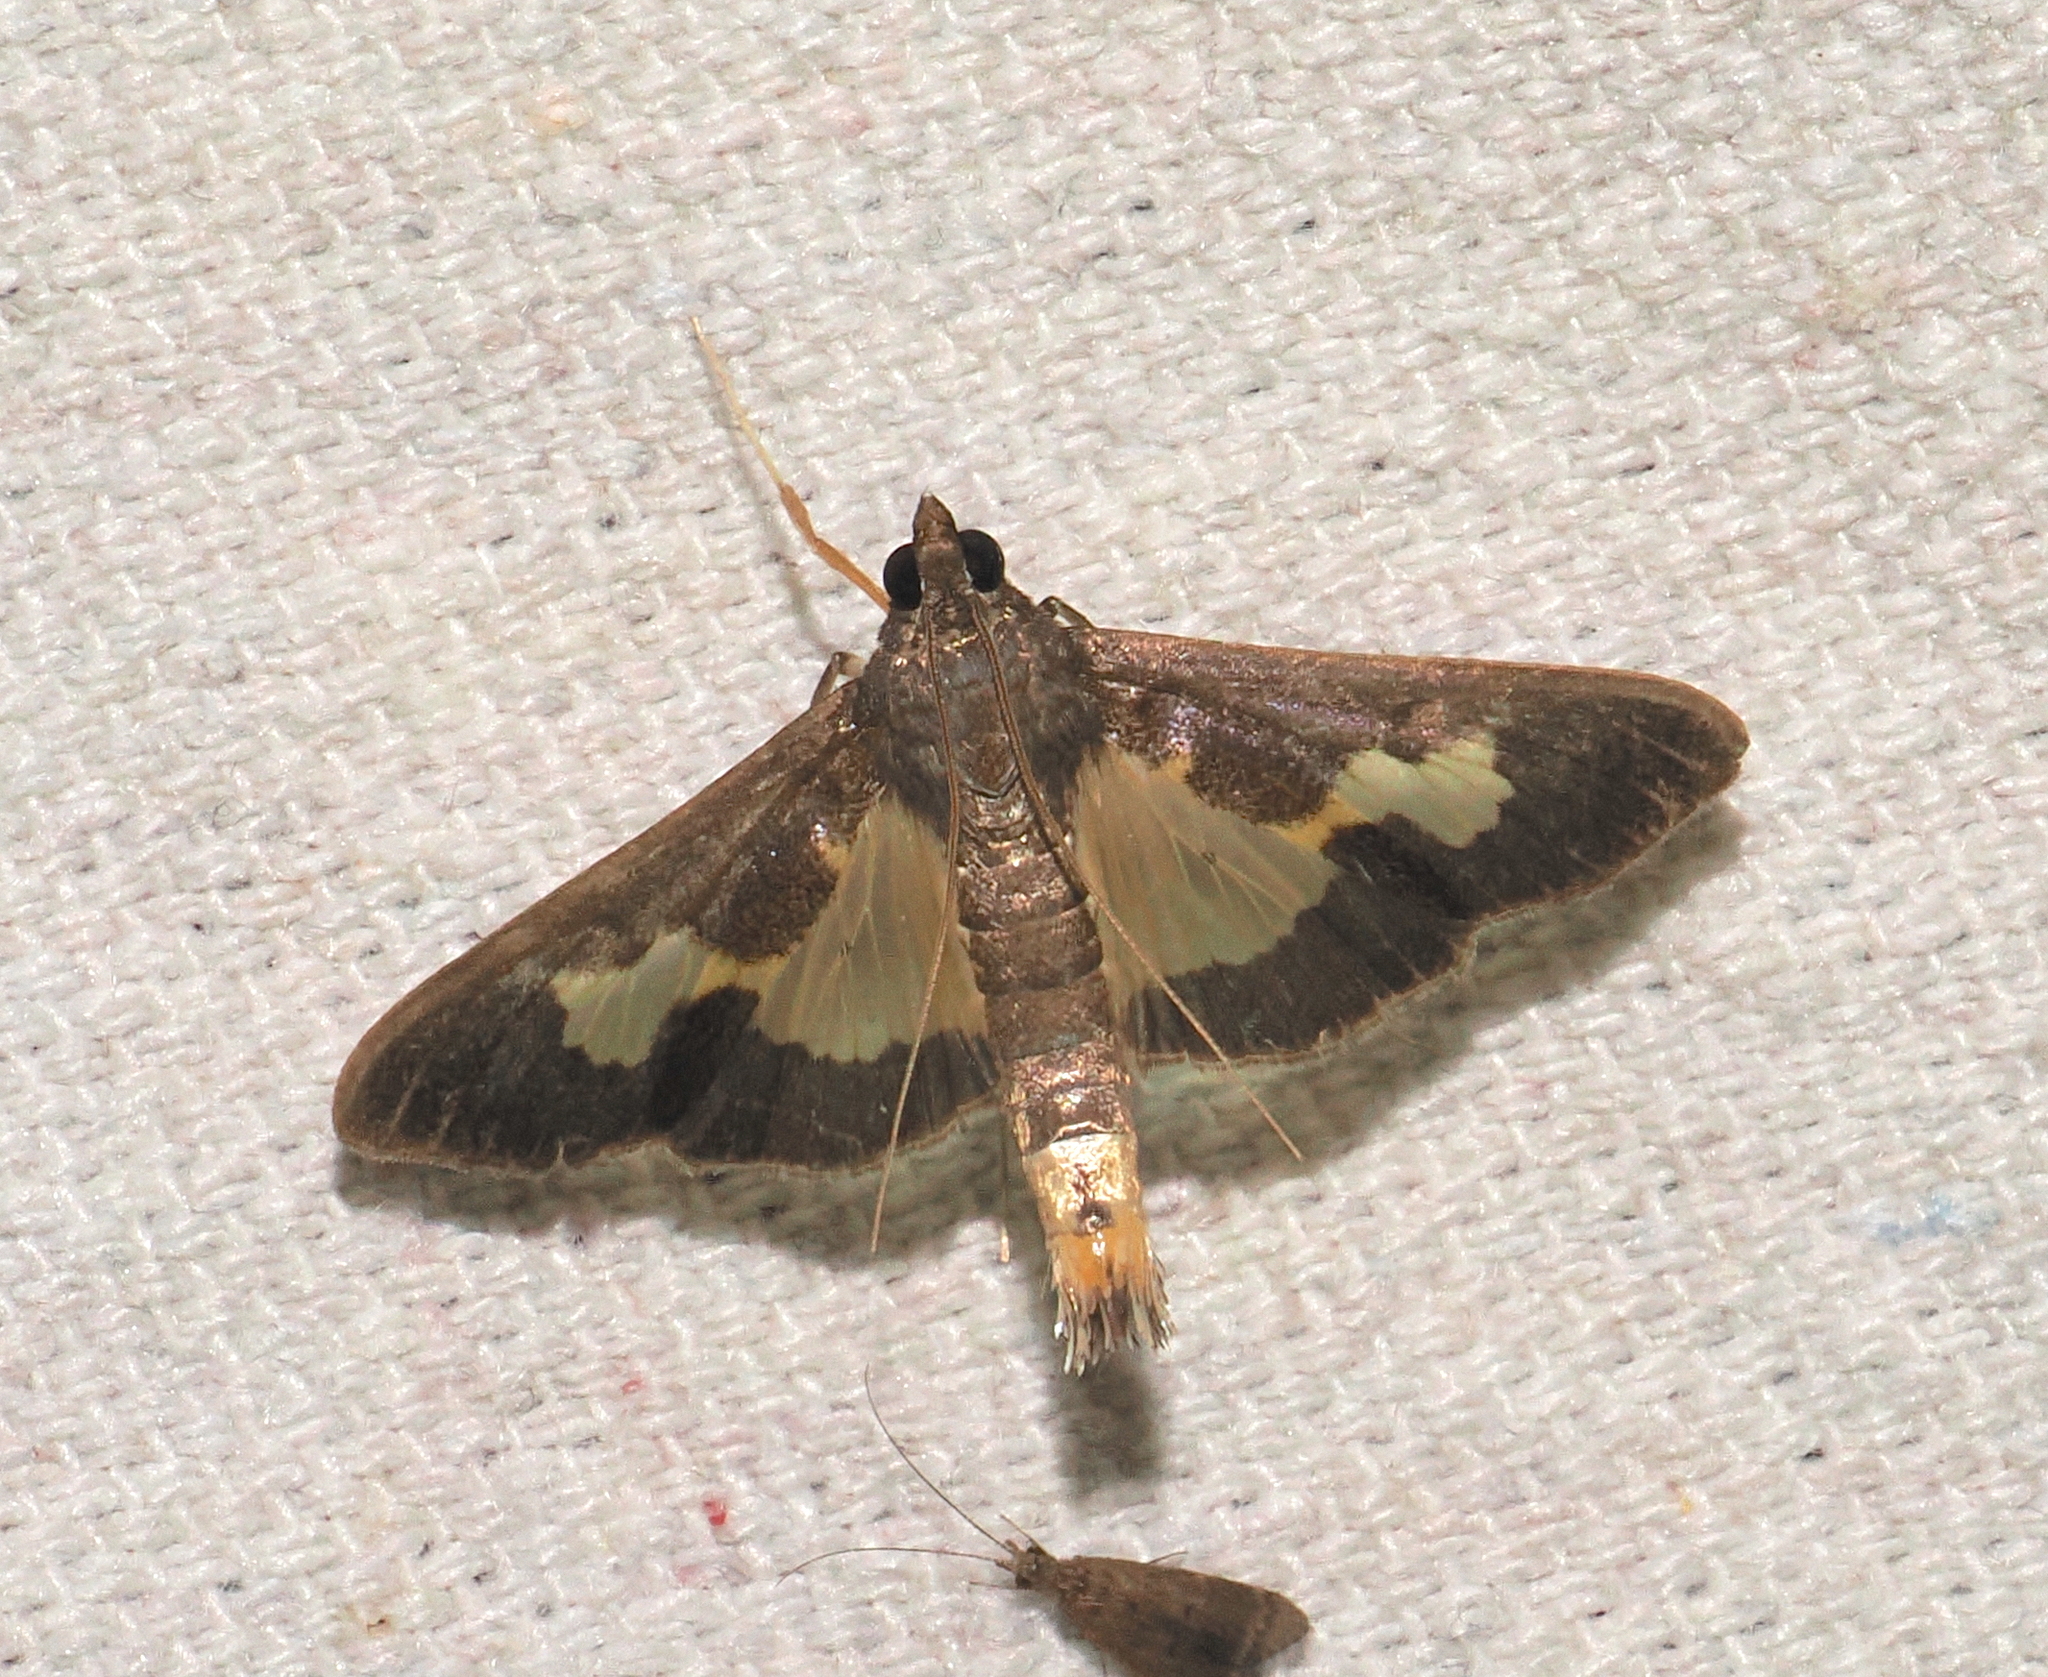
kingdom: Animalia
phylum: Arthropoda
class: Insecta
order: Lepidoptera
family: Crambidae
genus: Cryptographis
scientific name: Cryptographis nitidalis
